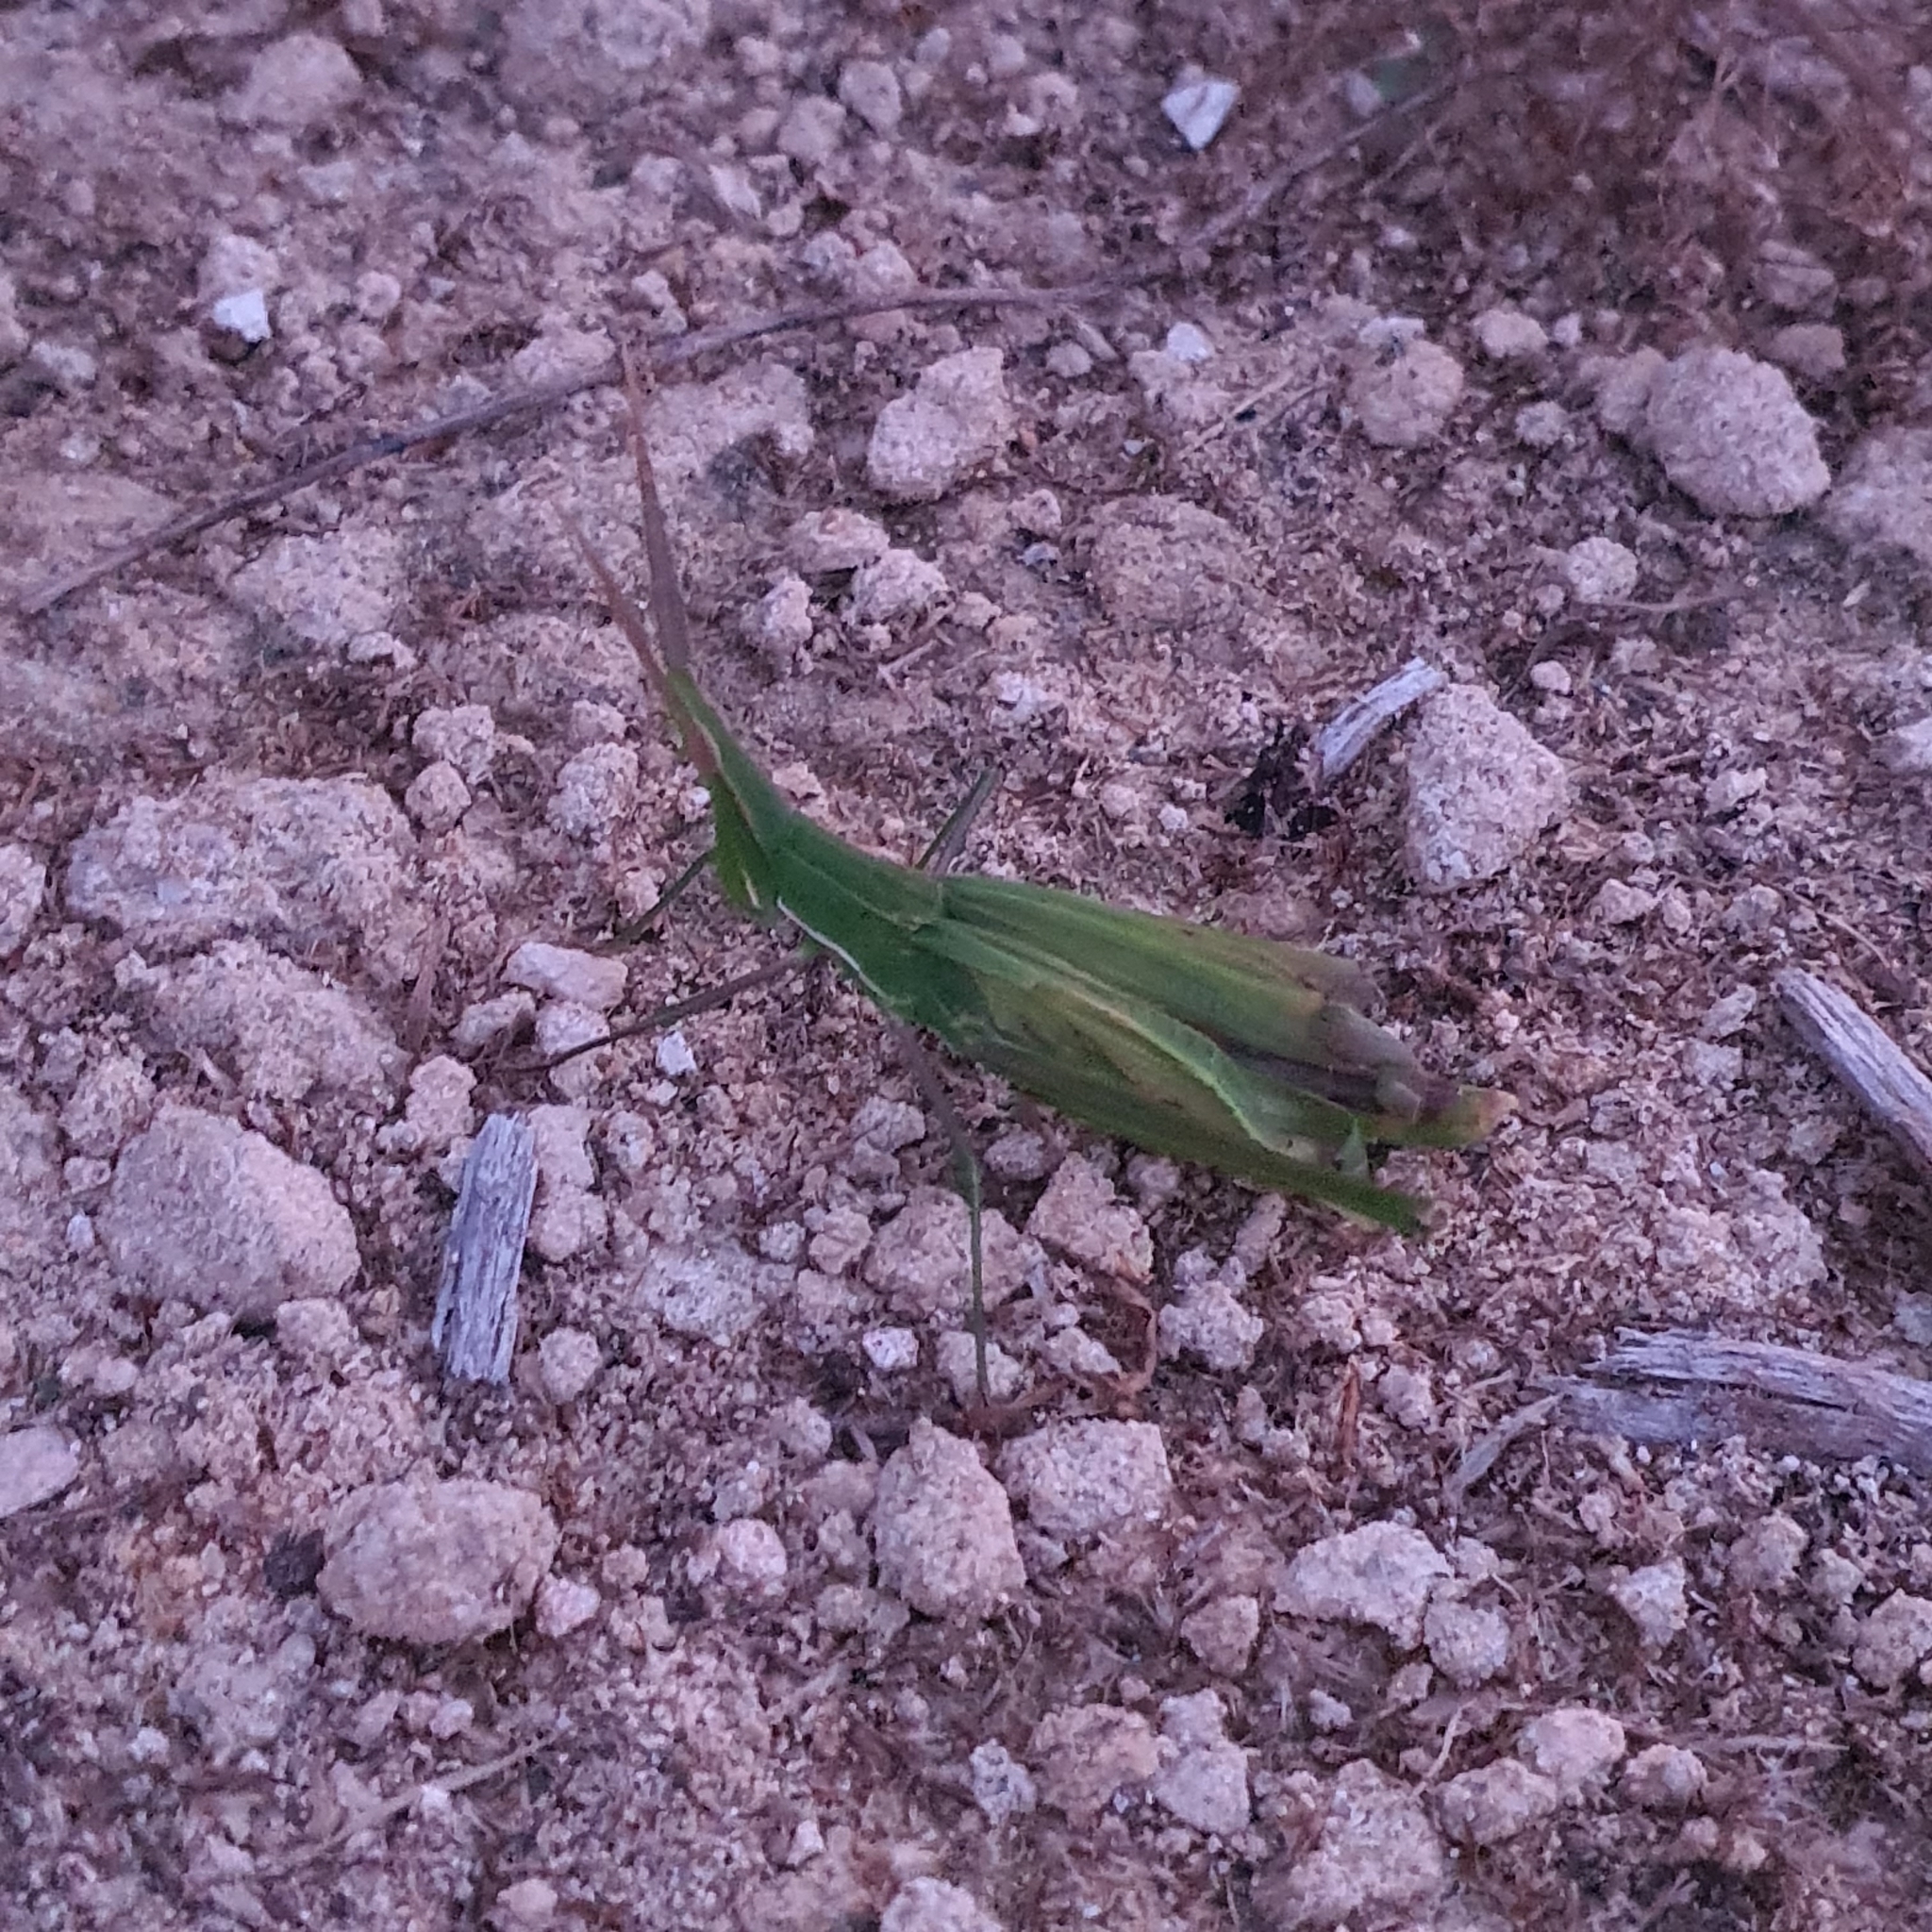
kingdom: Animalia
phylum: Arthropoda
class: Insecta
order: Orthoptera
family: Acrididae
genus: Acrida
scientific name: Acrida conica
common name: Giant green slantface
